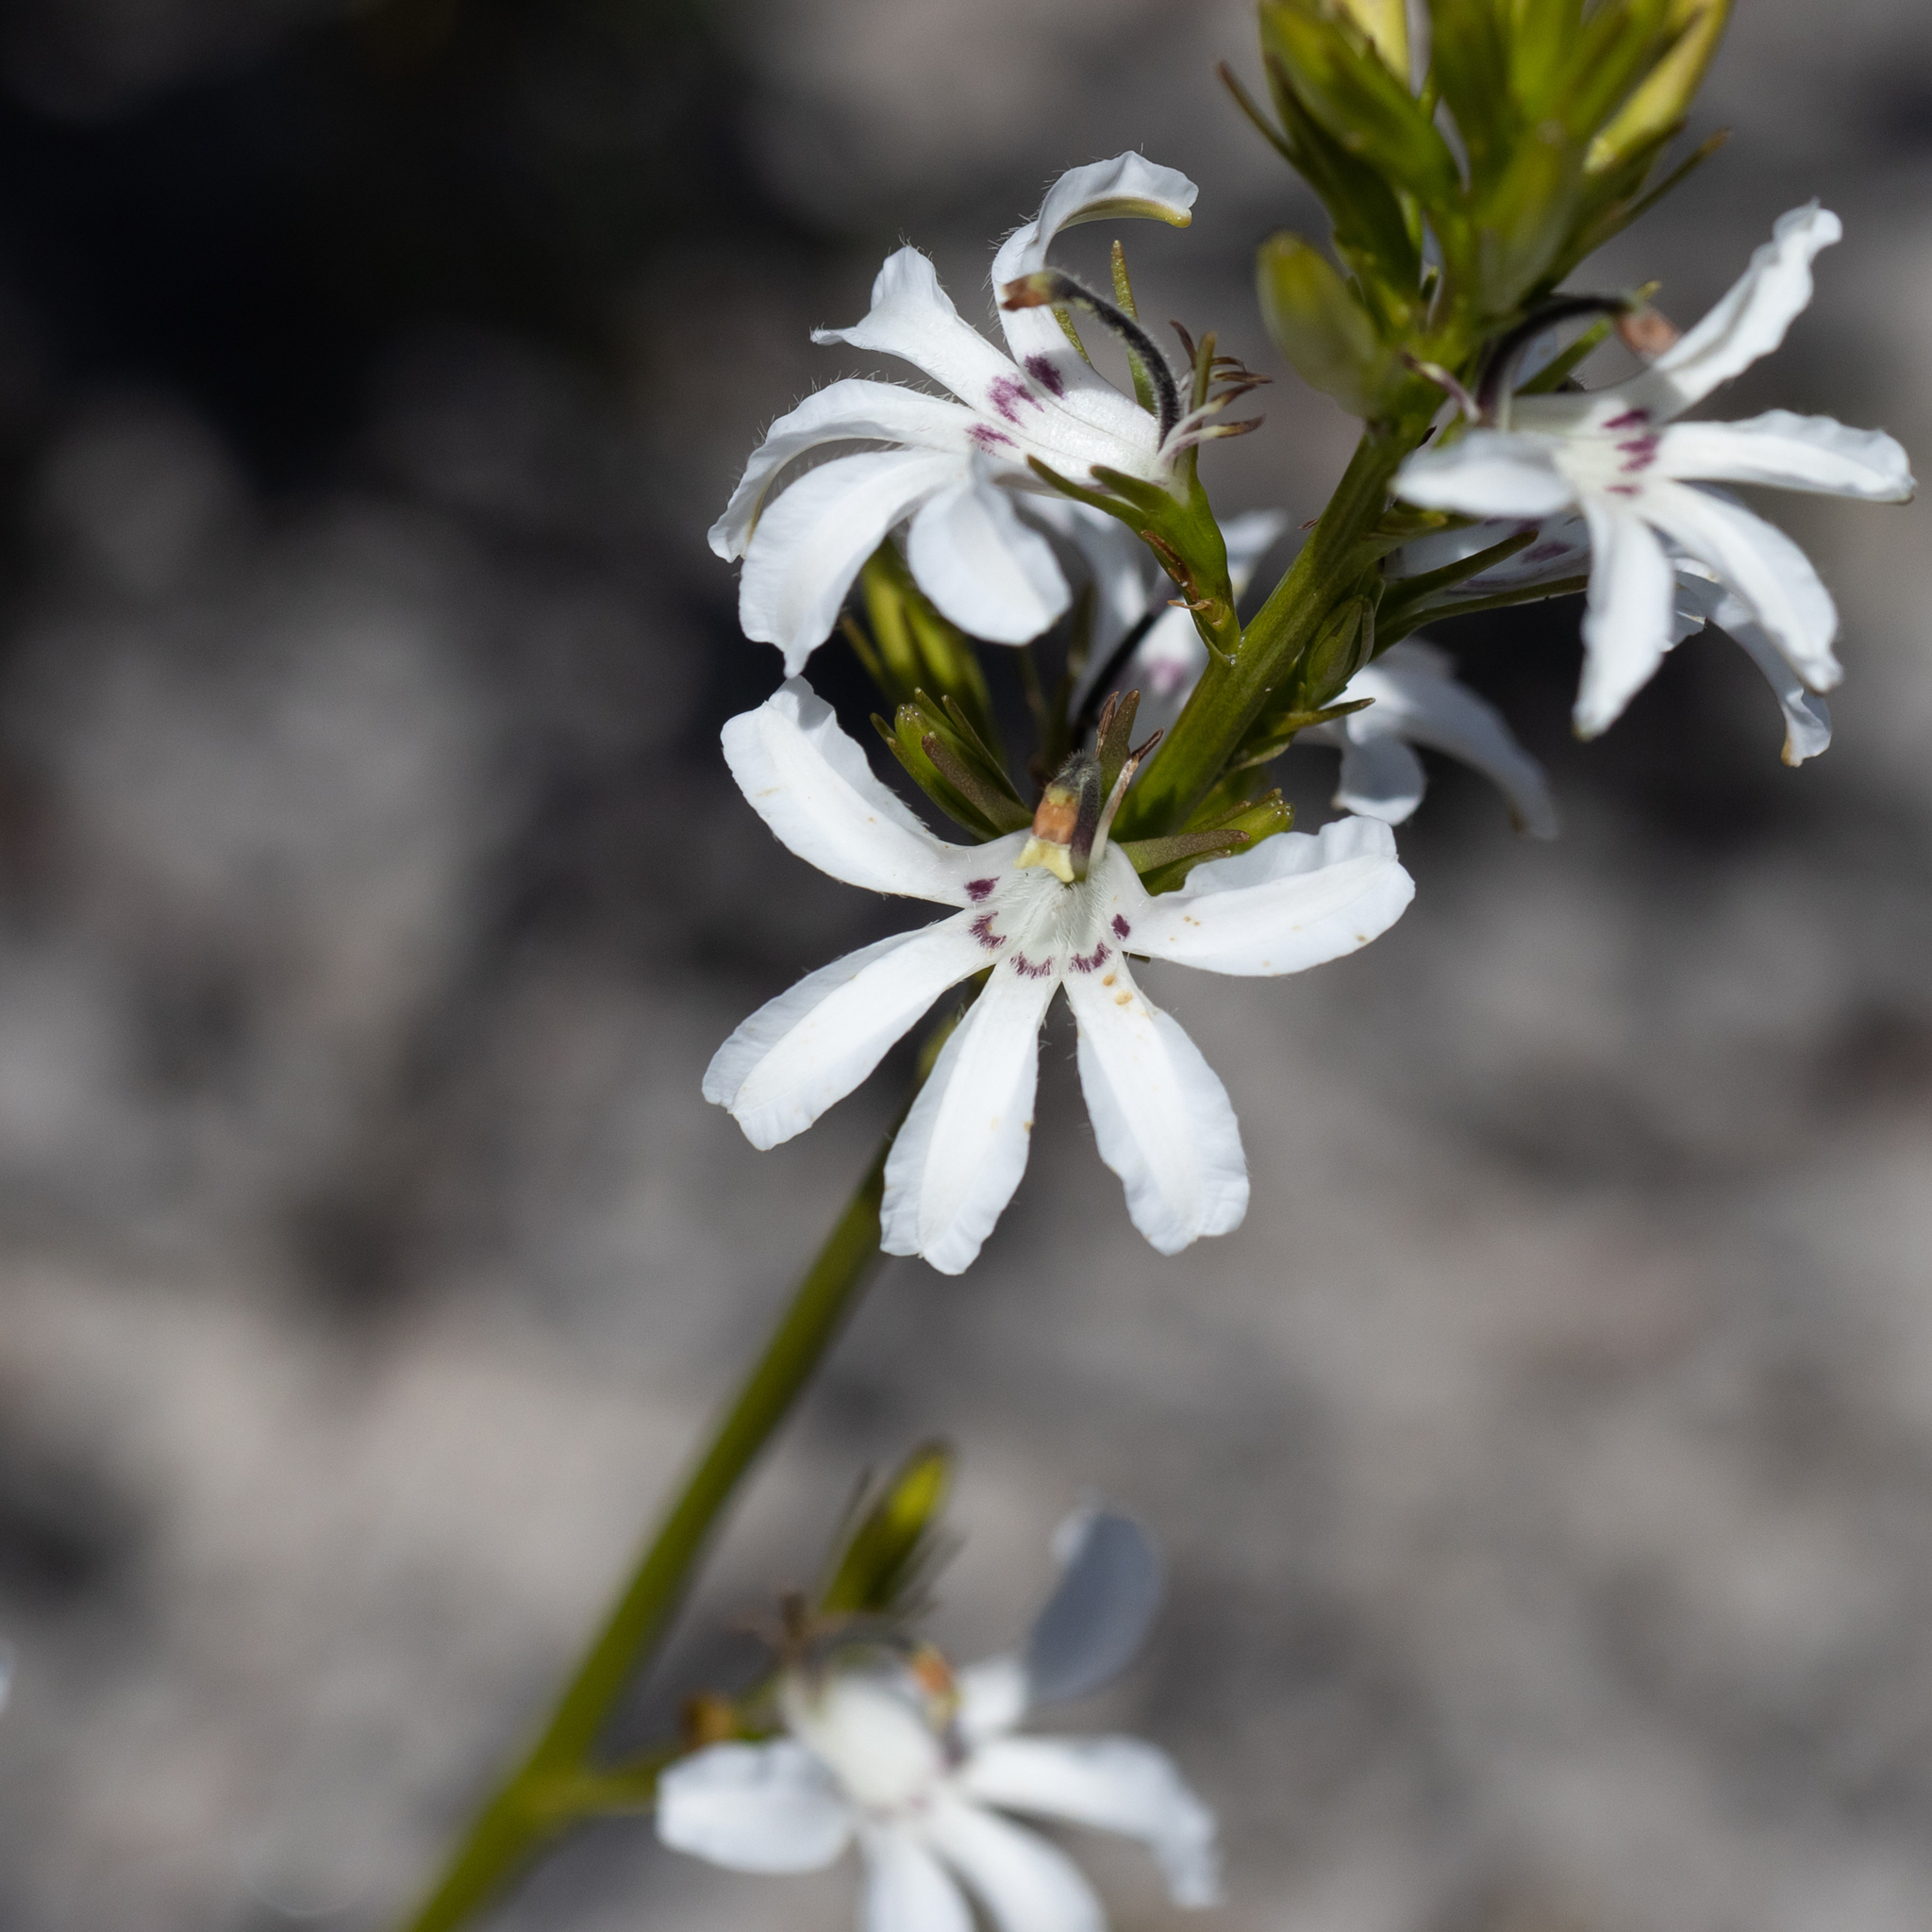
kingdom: Plantae
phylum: Tracheophyta
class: Magnoliopsida
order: Asterales
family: Goodeniaceae
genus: Goodenia
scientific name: Goodenia scapigera
